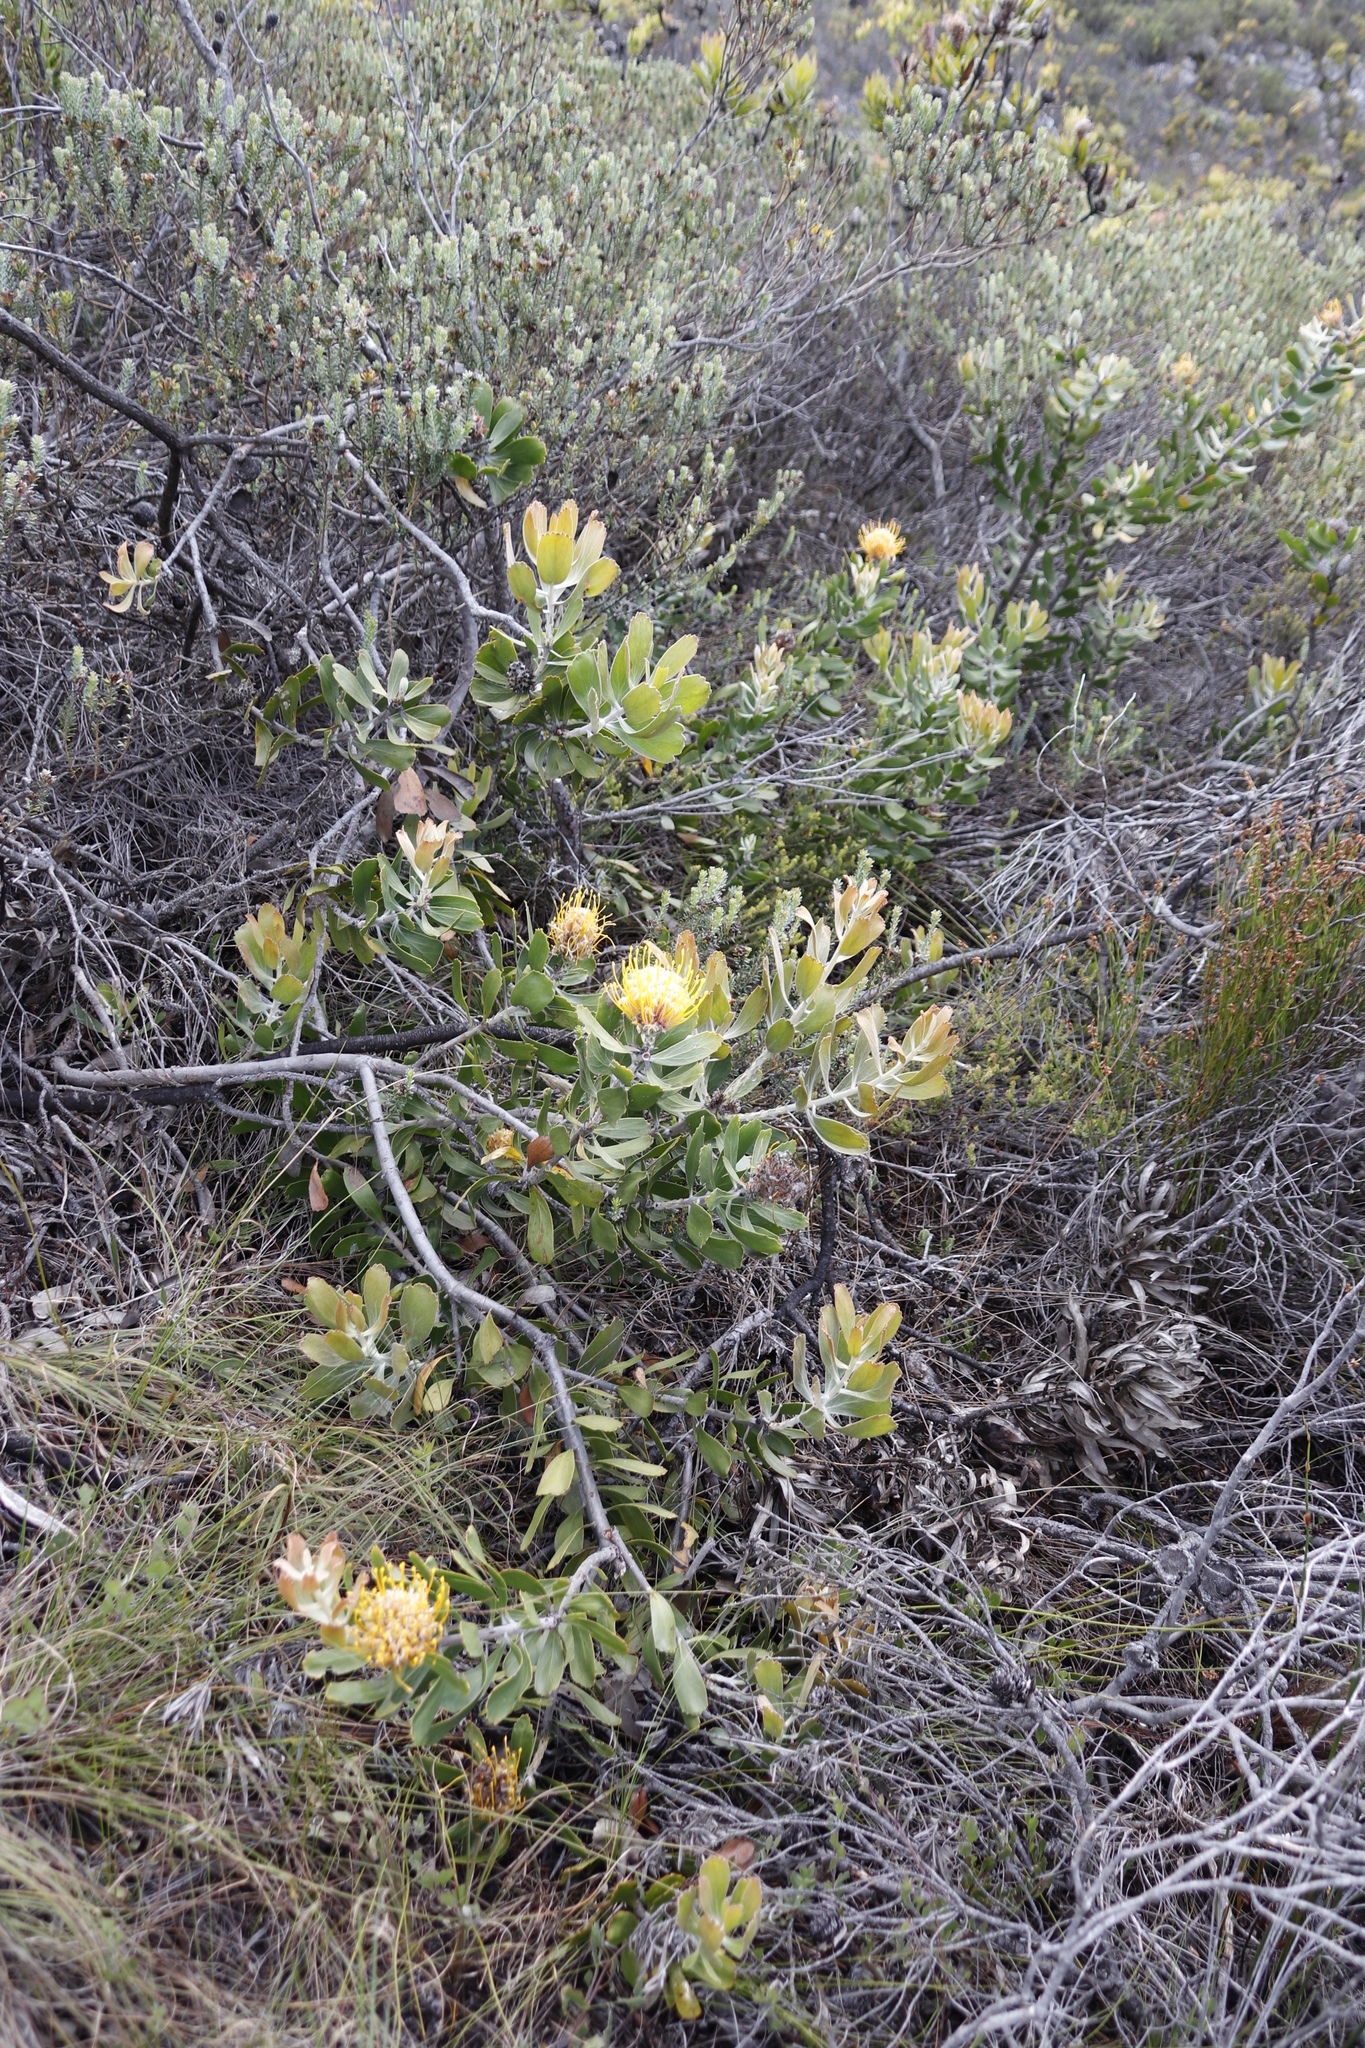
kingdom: Plantae
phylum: Tracheophyta
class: Magnoliopsida
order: Proteales
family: Proteaceae
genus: Leucospermum
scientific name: Leucospermum cuneiforme
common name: Common pincushion
